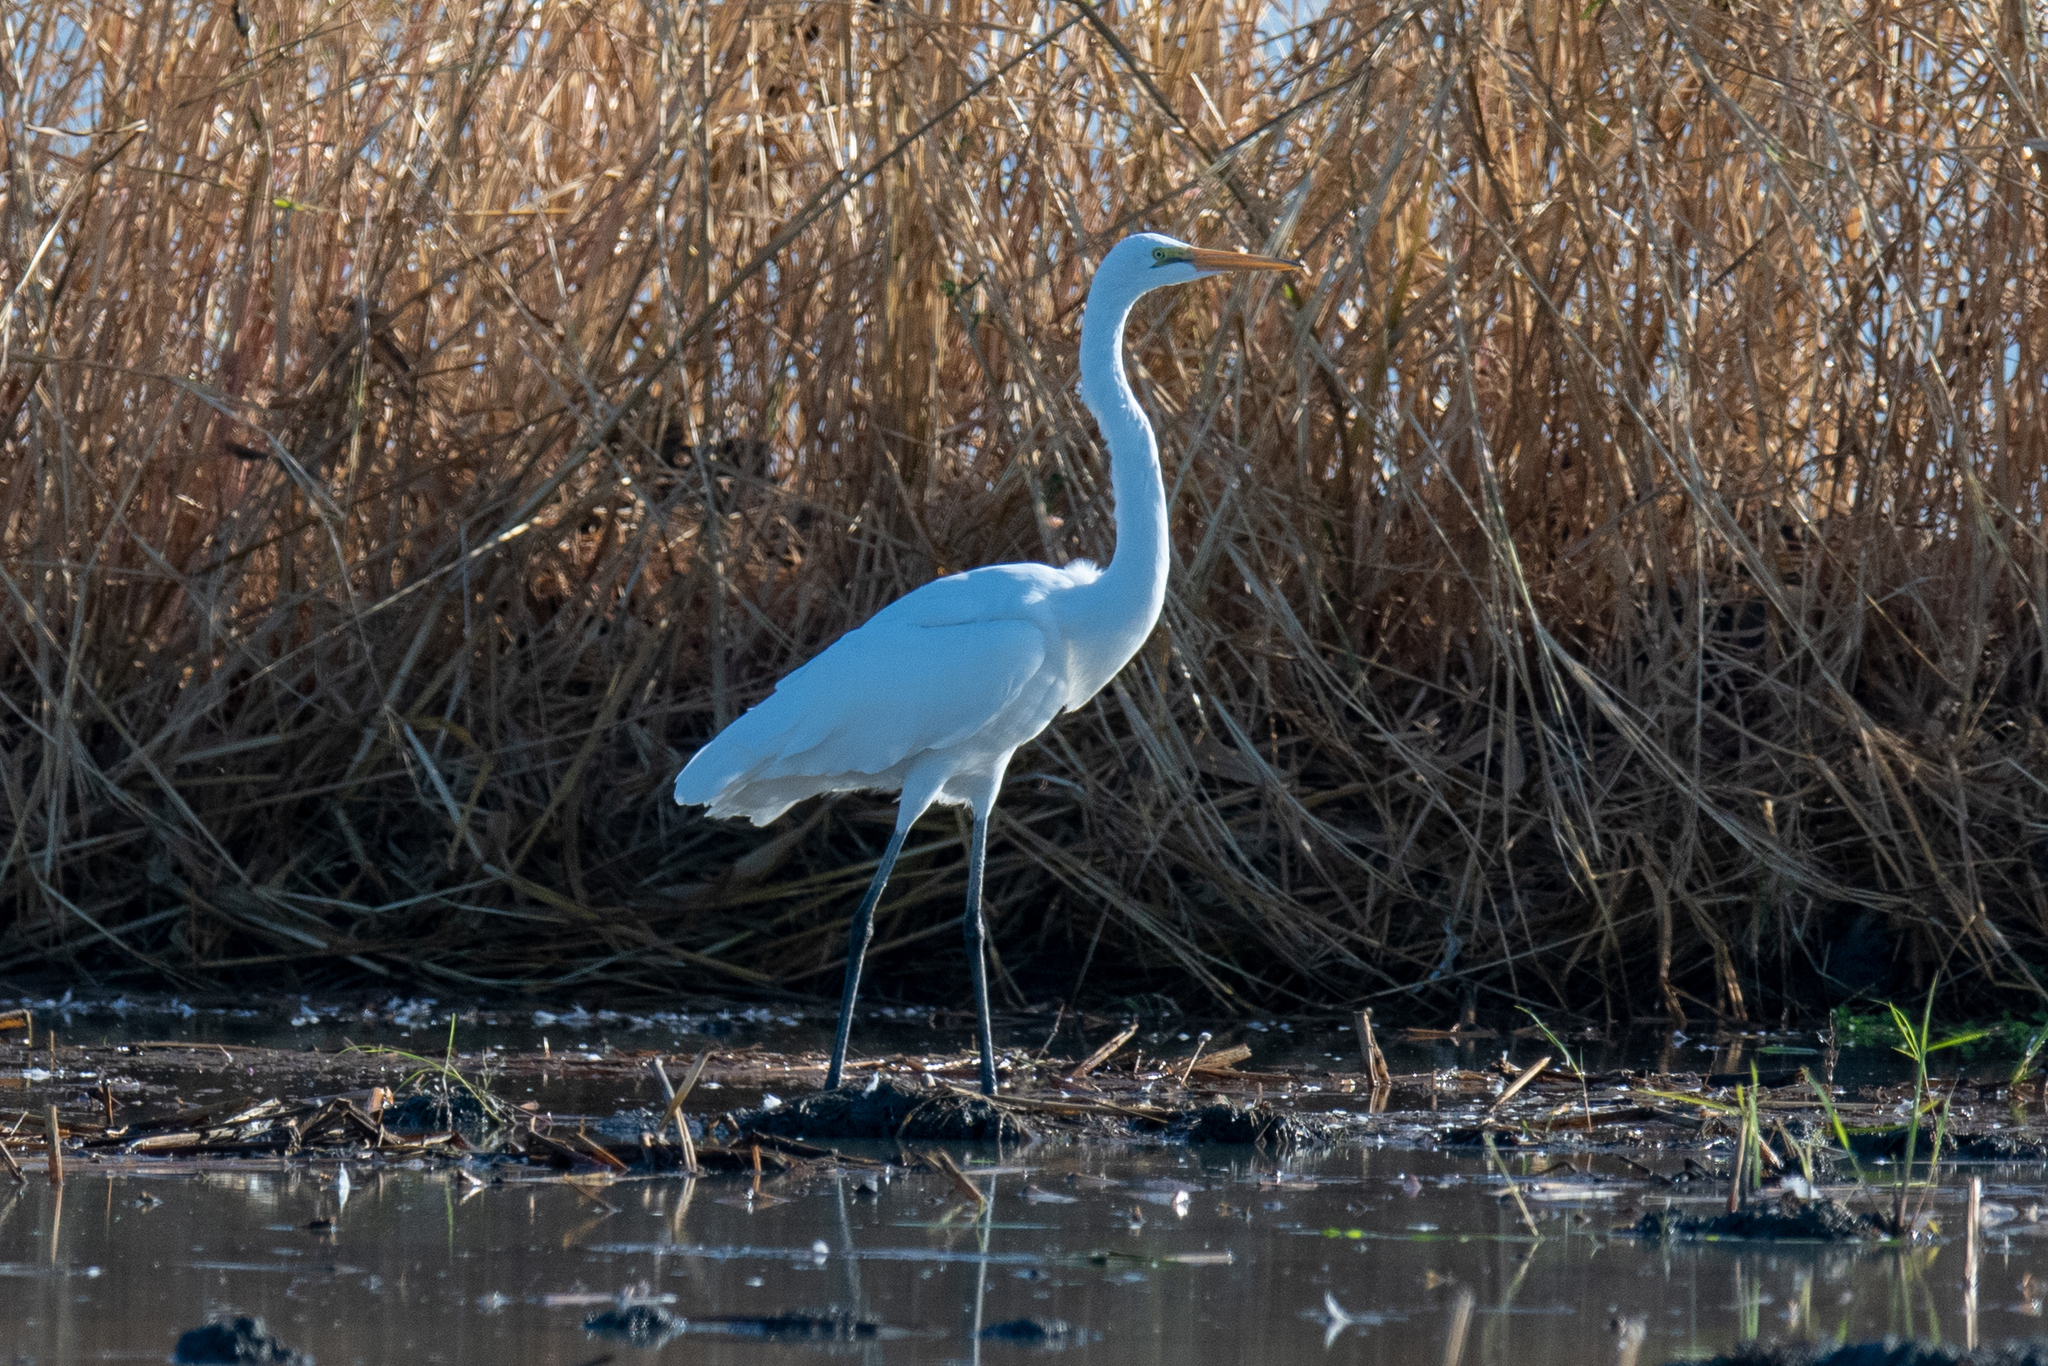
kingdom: Animalia
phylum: Chordata
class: Aves
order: Pelecaniformes
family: Ardeidae
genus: Ardea
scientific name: Ardea alba
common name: Great egret
